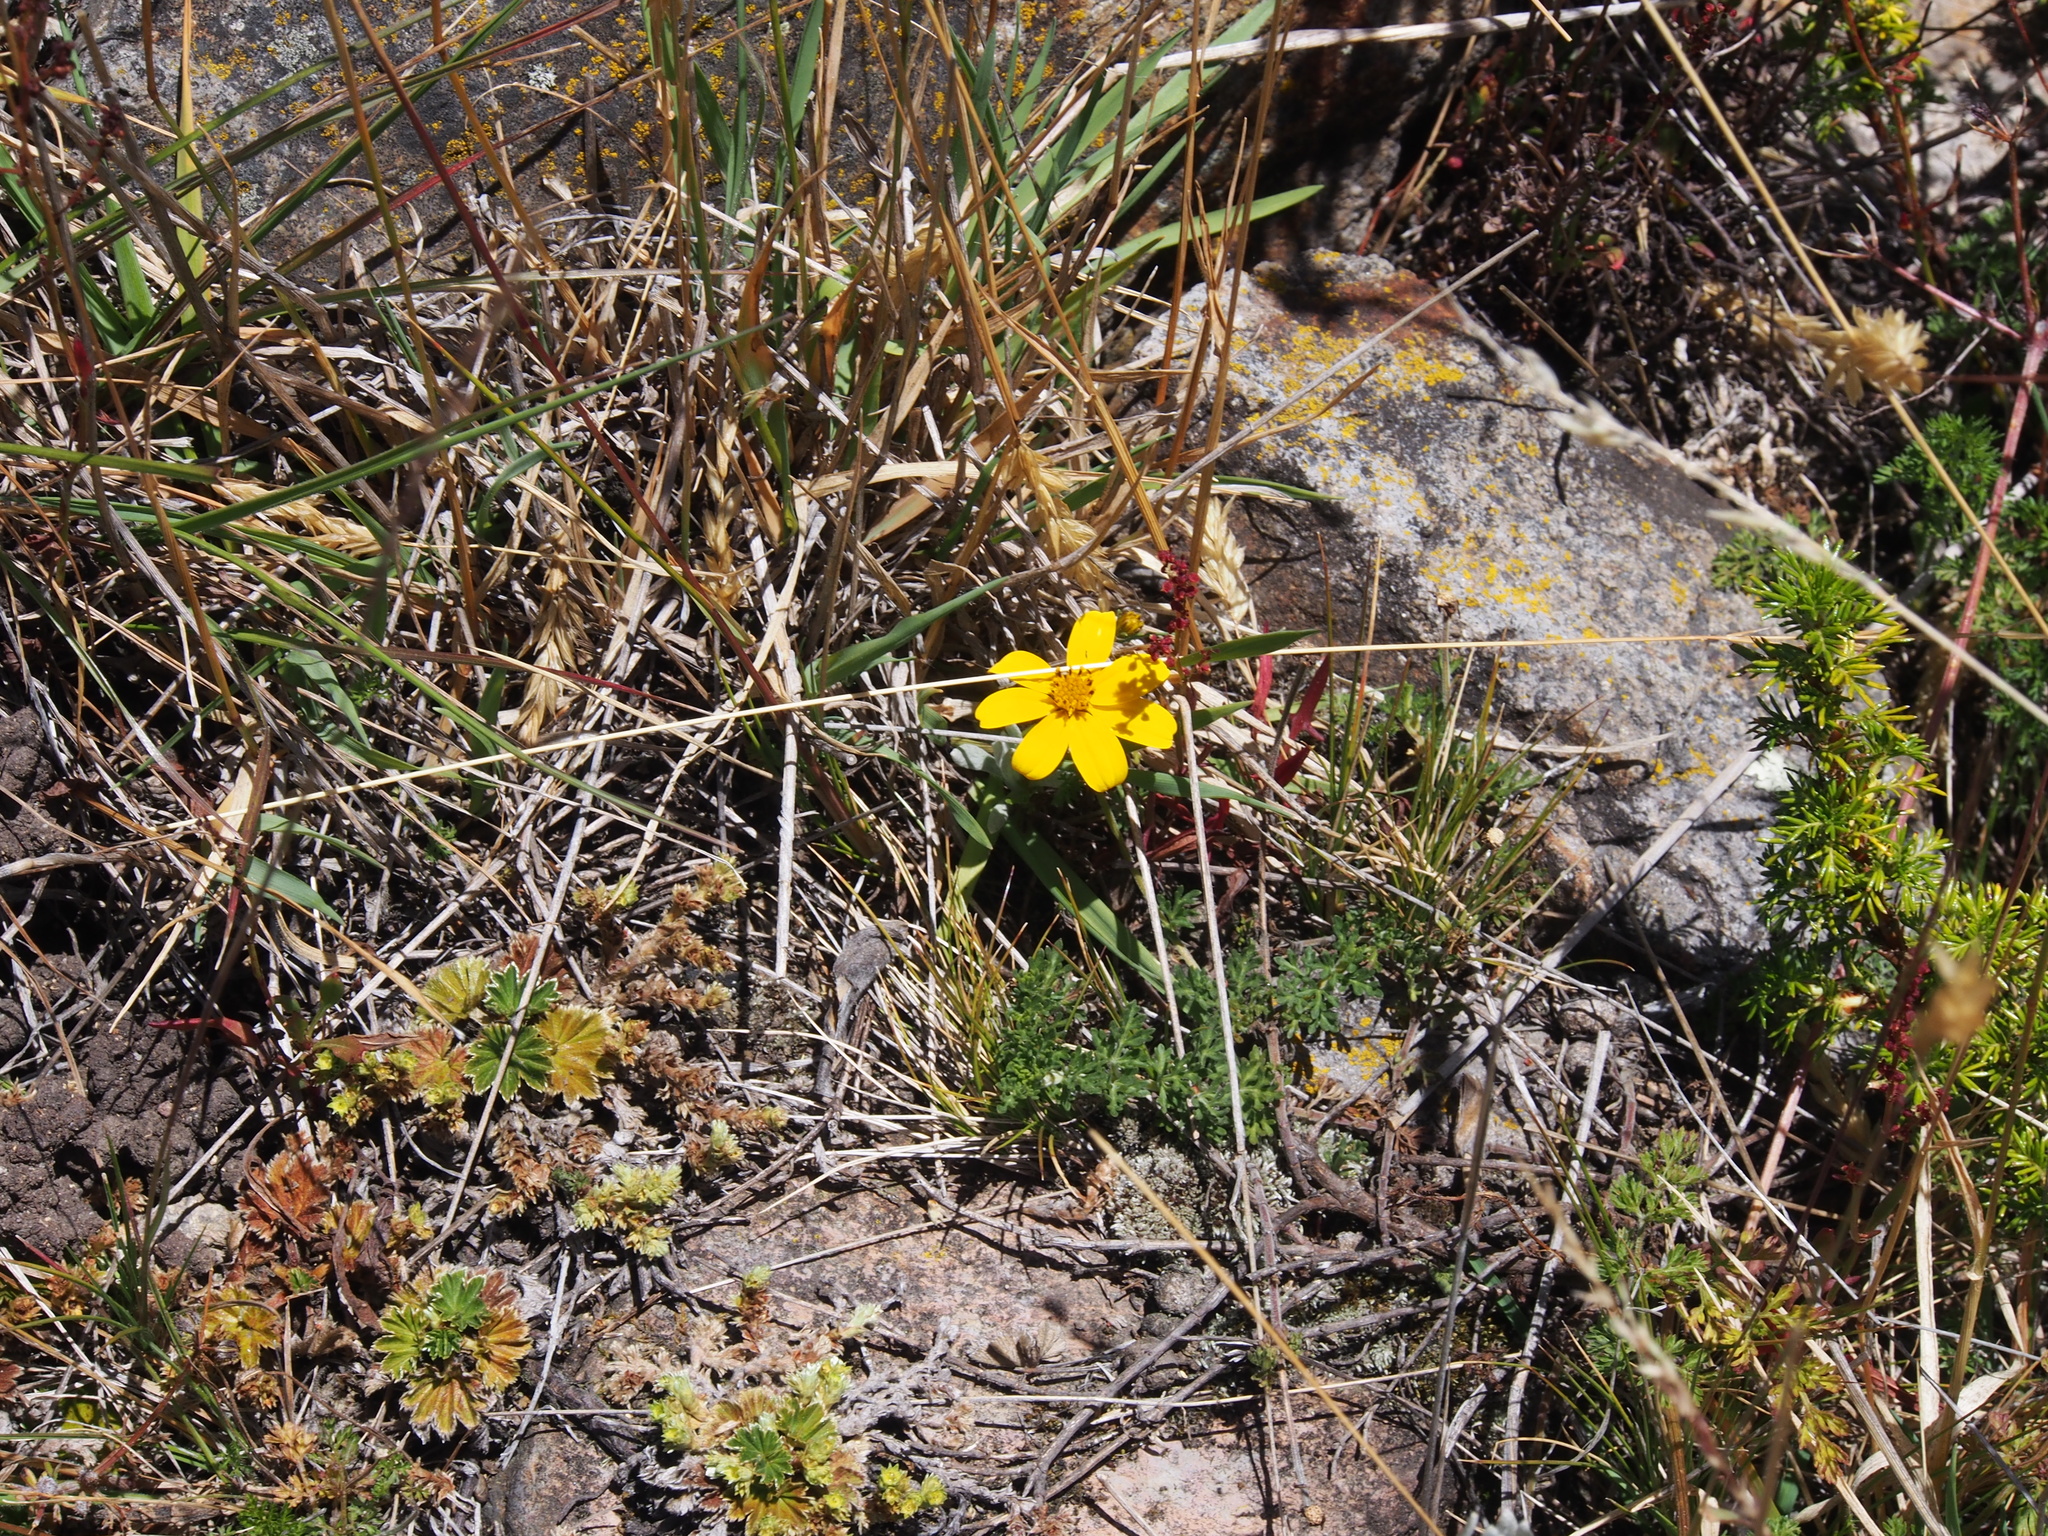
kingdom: Plantae
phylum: Tracheophyta
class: Magnoliopsida
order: Asterales
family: Asteraceae
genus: Bidens
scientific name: Bidens andicola
